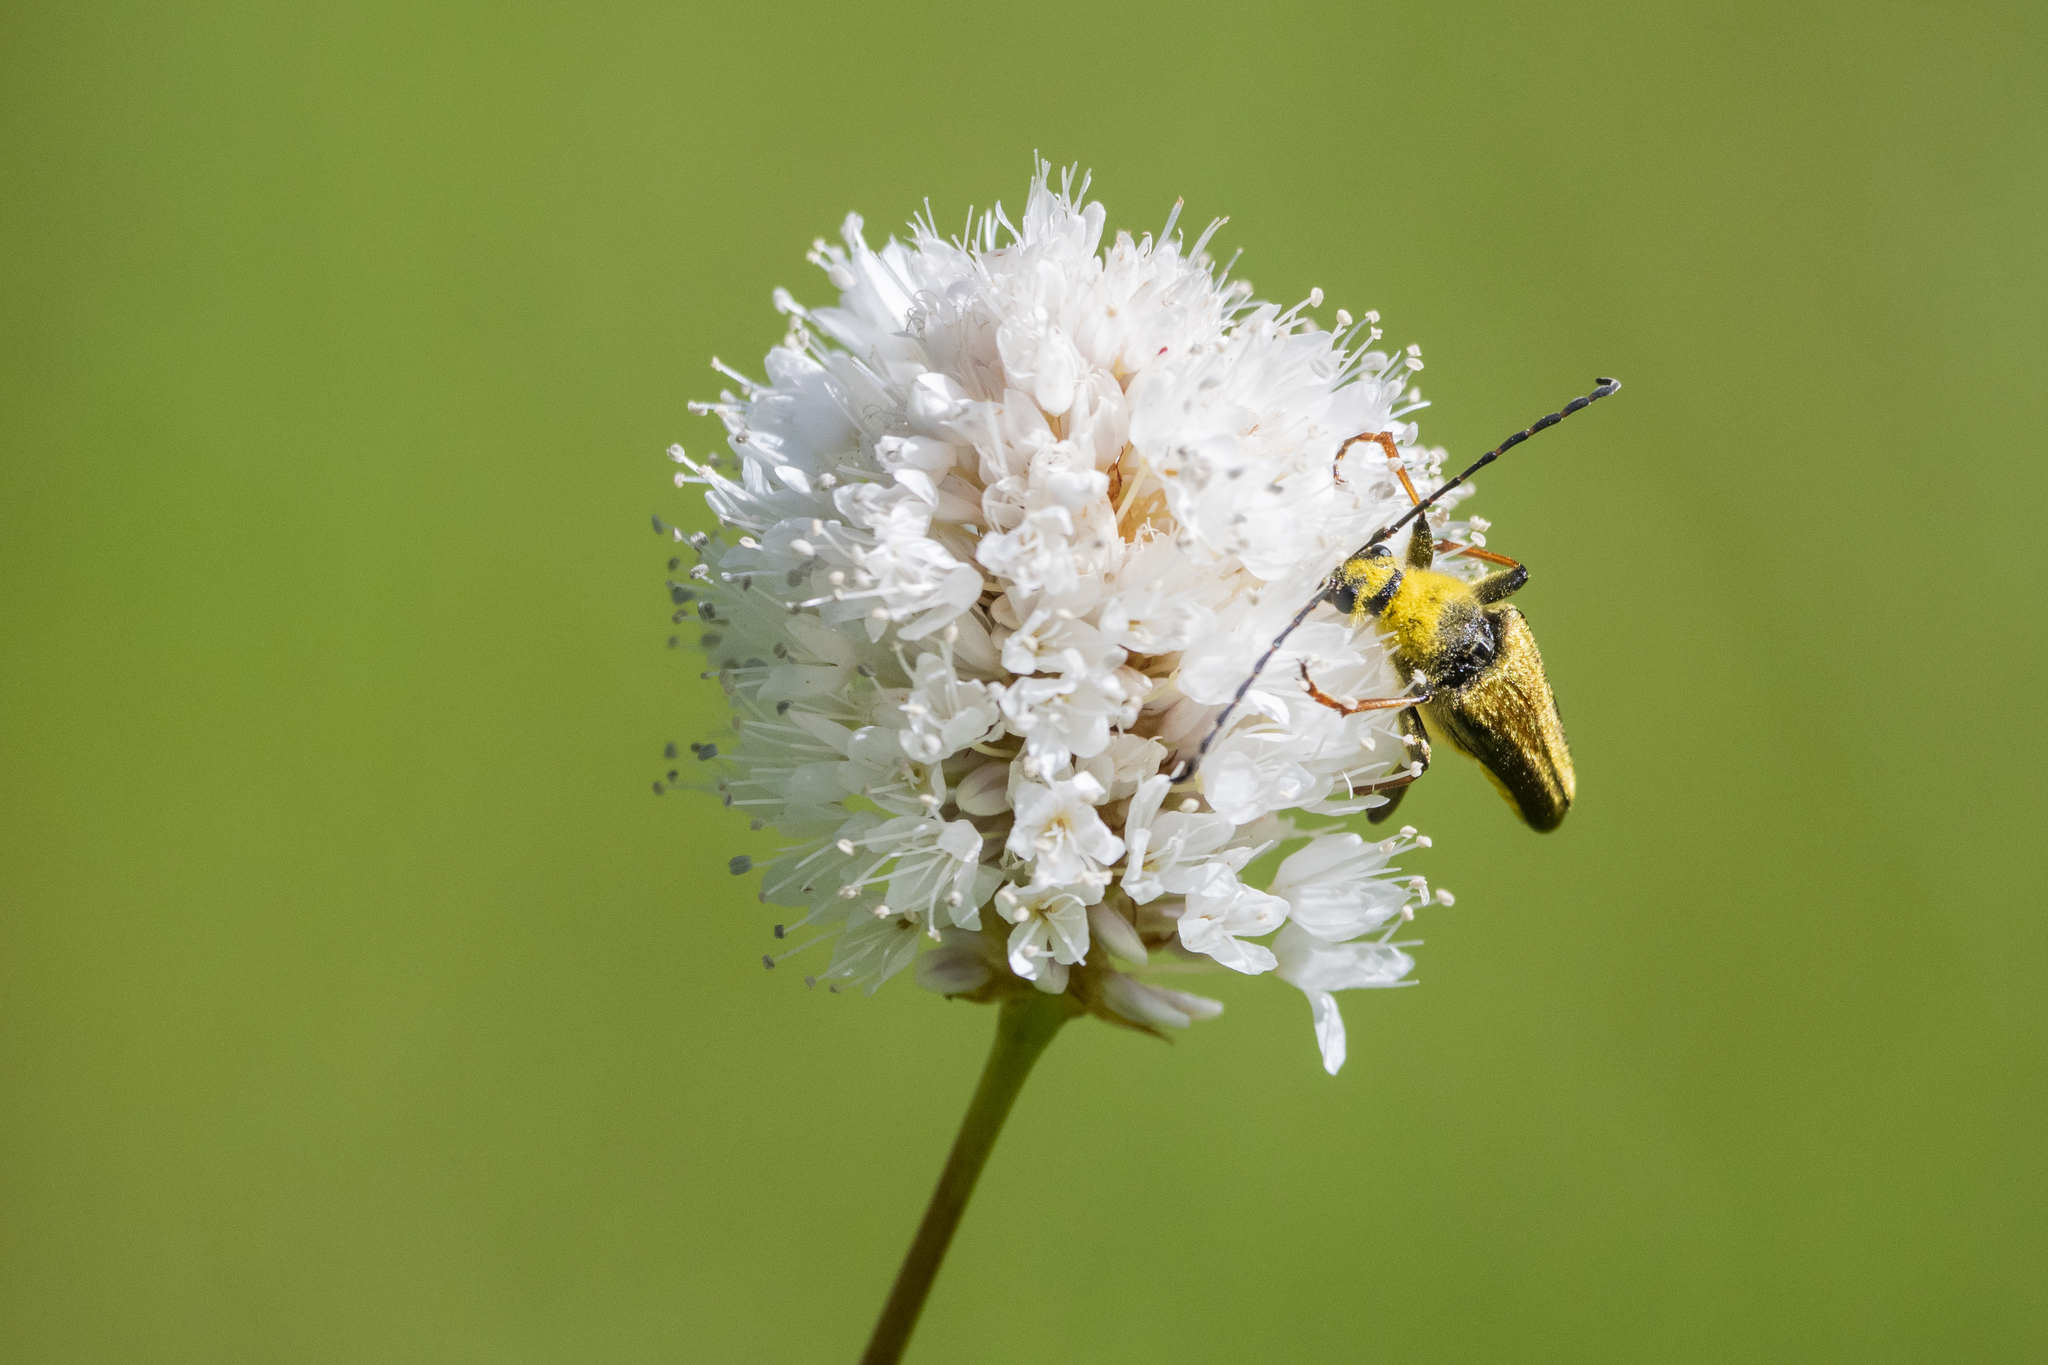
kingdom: Animalia
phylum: Arthropoda
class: Insecta
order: Coleoptera
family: Cerambycidae
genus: Cosmosalia
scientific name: Cosmosalia chrysocoma
